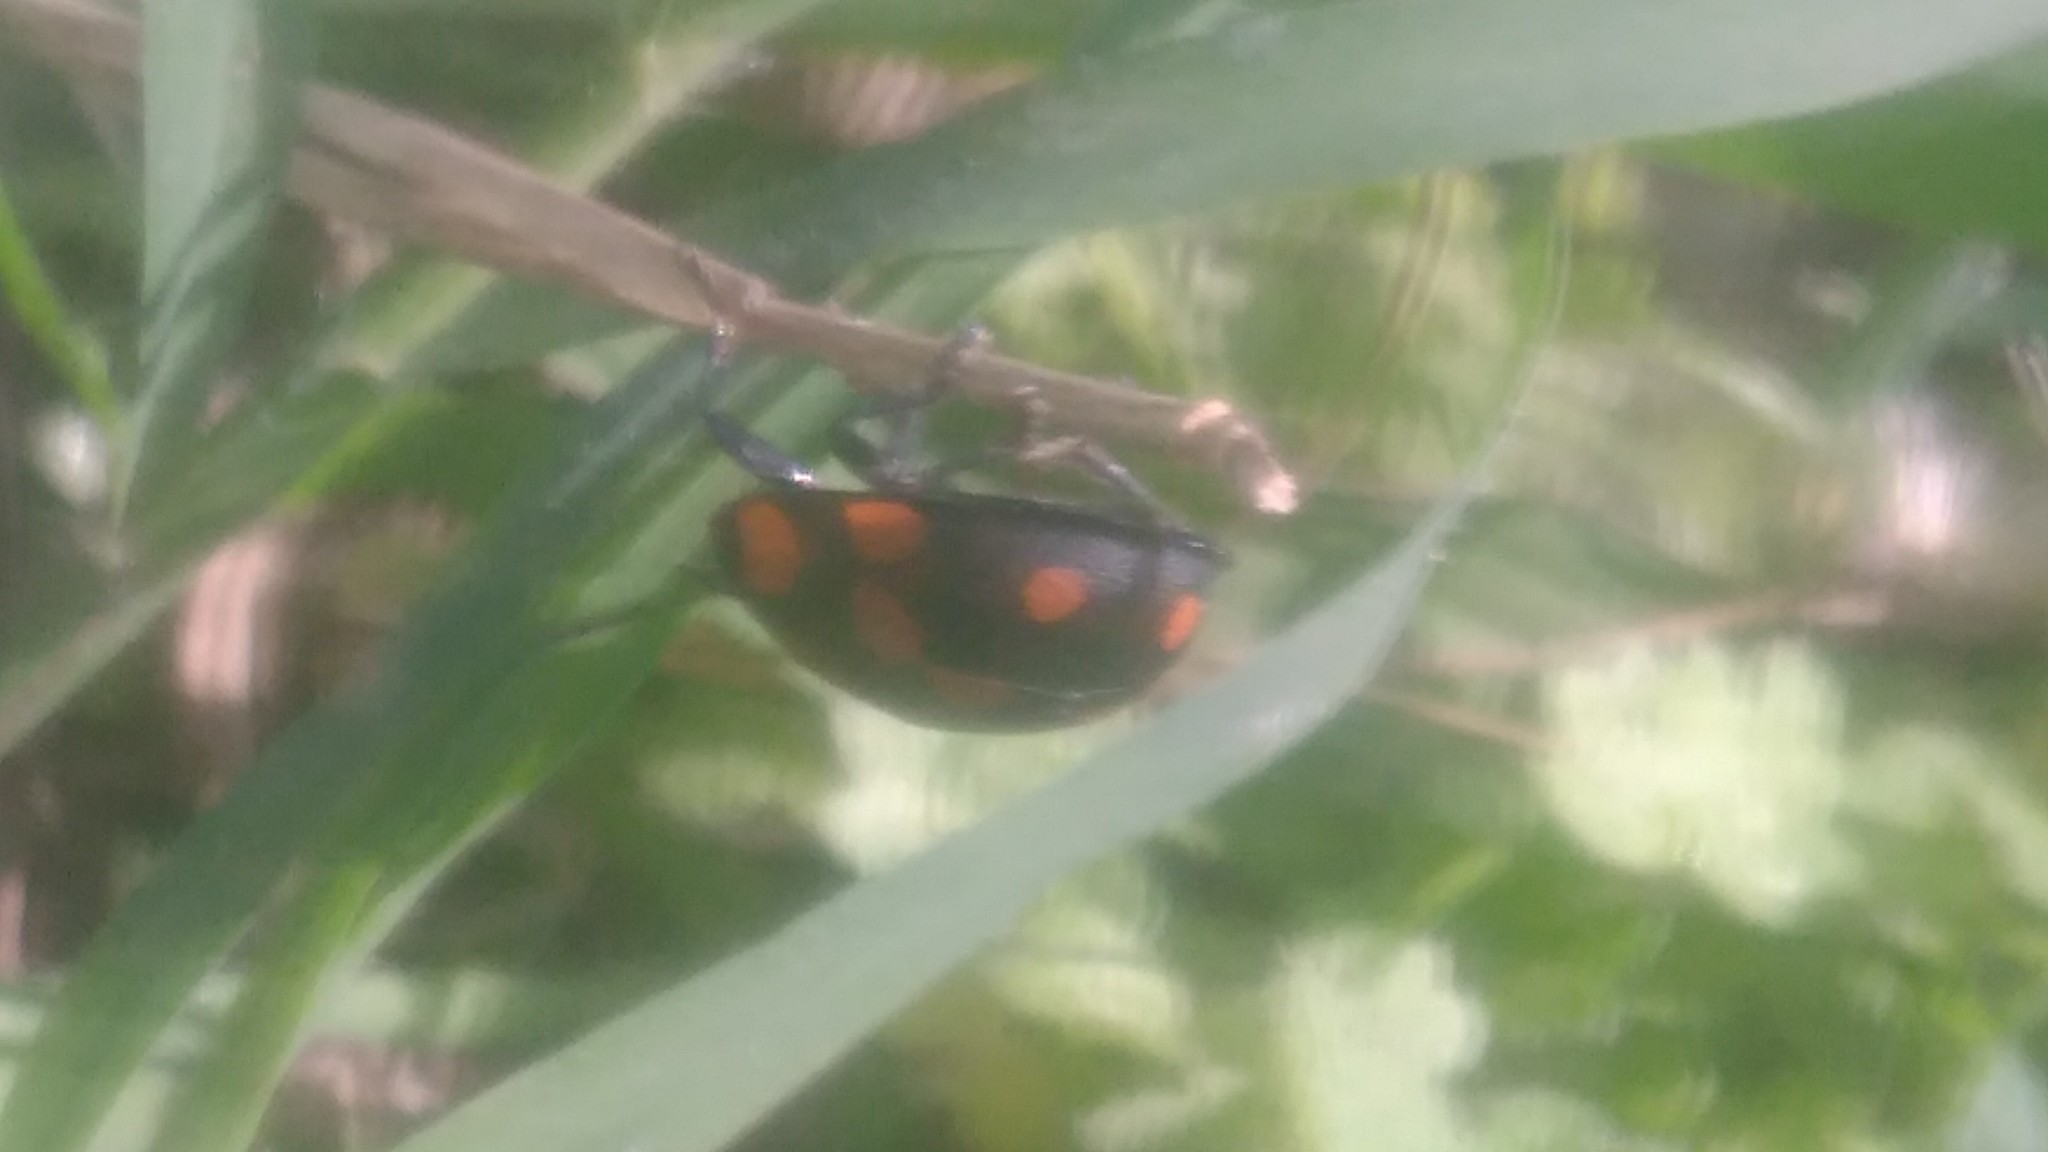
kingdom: Animalia
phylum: Arthropoda
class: Insecta
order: Coleoptera
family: Chrysomelidae
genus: Botanochara
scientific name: Botanochara duodecimverrucata
